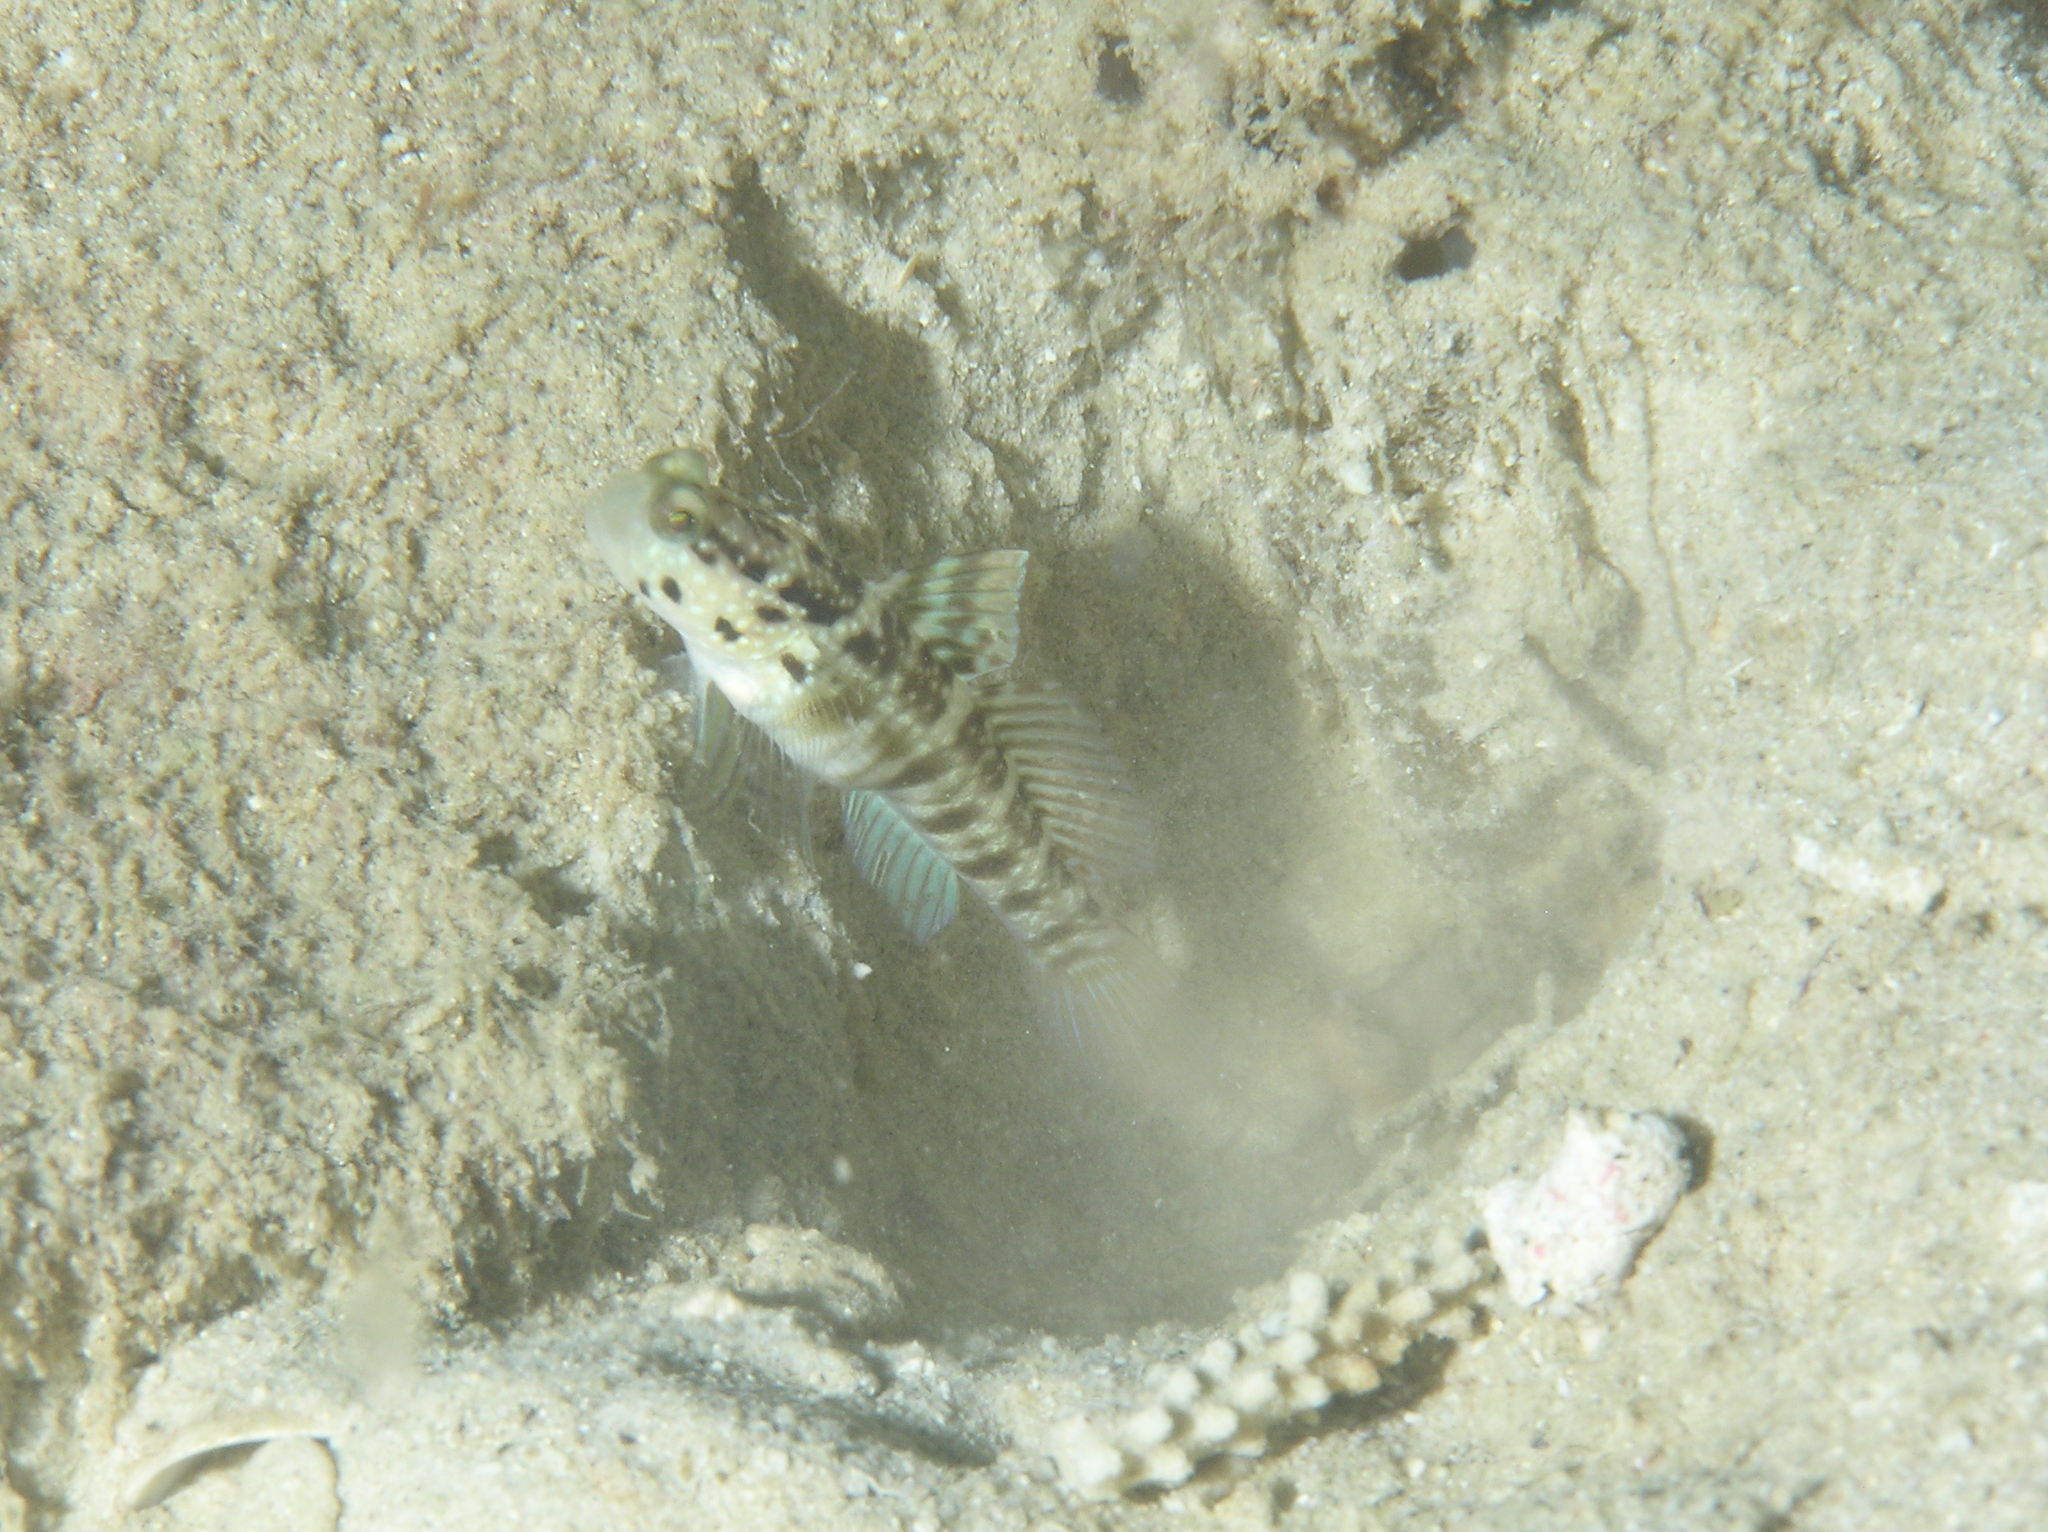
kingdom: Animalia
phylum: Chordata
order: Perciformes
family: Gobiidae
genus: Cryptocentrus
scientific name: Cryptocentrus sericus
